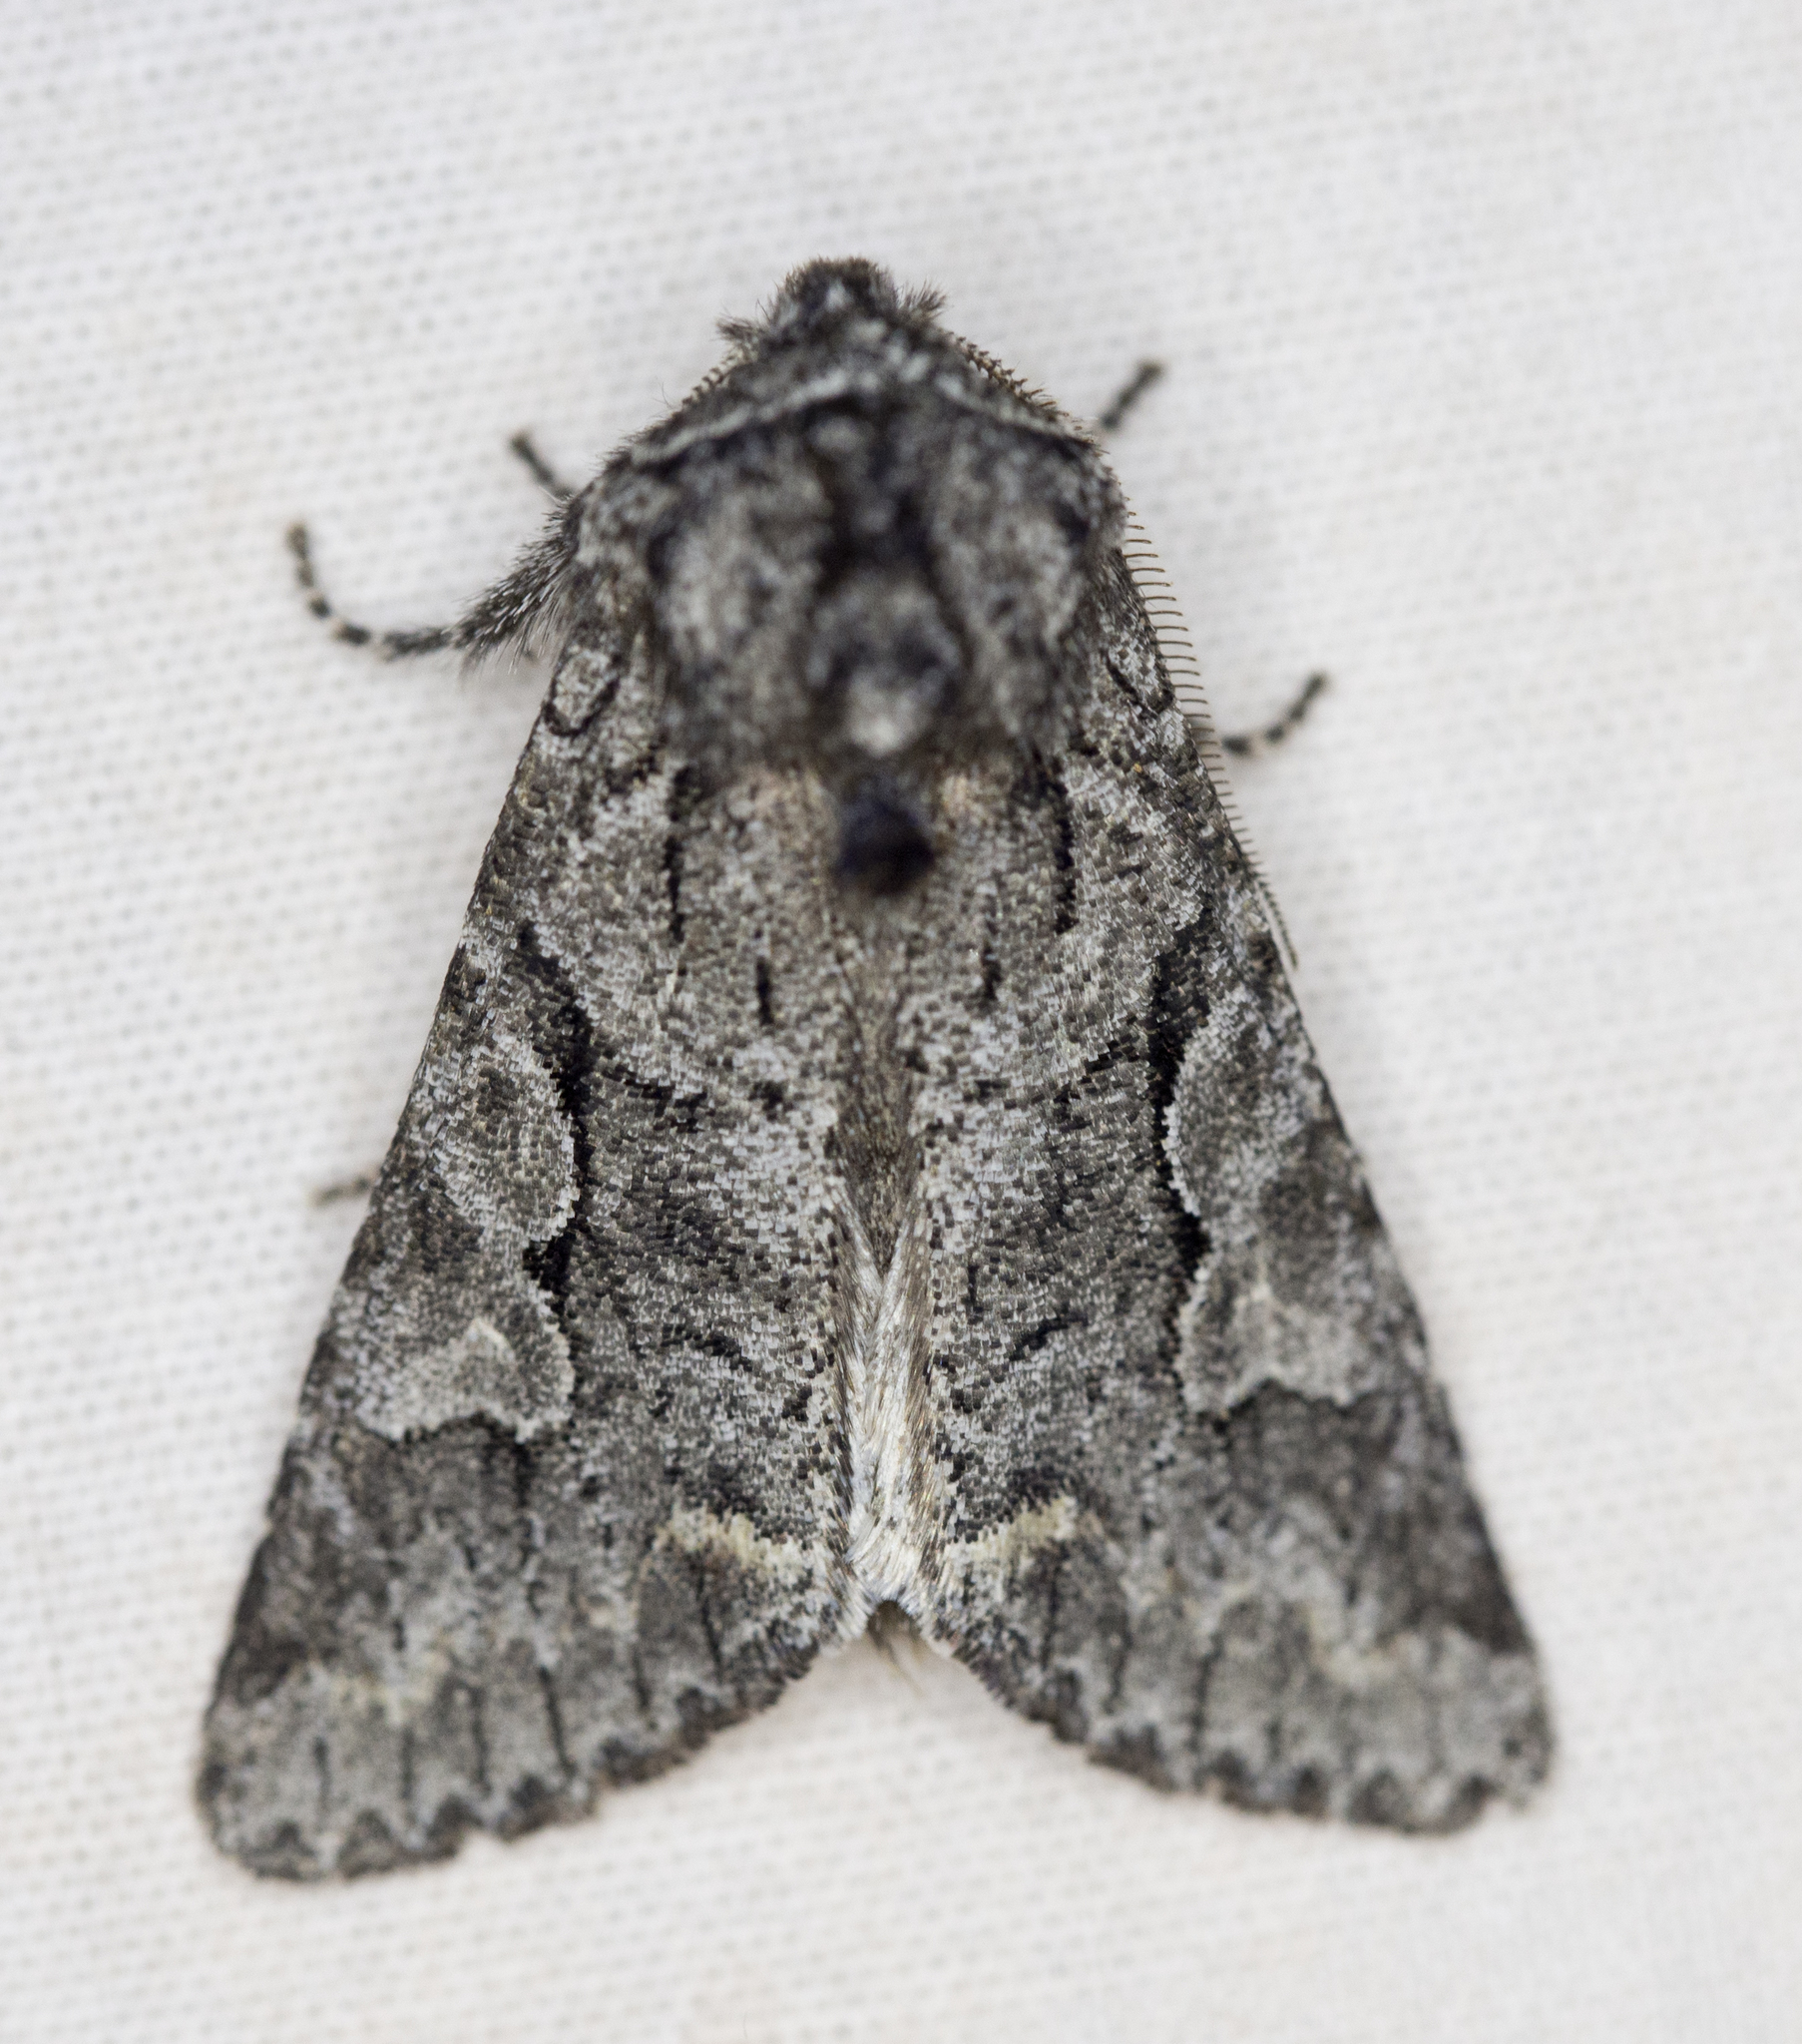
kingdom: Animalia
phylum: Arthropoda
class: Insecta
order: Lepidoptera
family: Noctuidae
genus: Egira
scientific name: Egira variabilis
